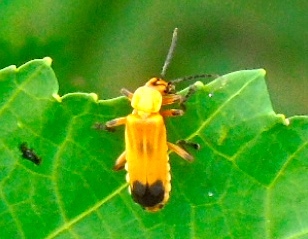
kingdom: Animalia
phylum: Arthropoda
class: Insecta
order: Coleoptera
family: Cantharidae
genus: Daiphron
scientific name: Daiphron proteum
